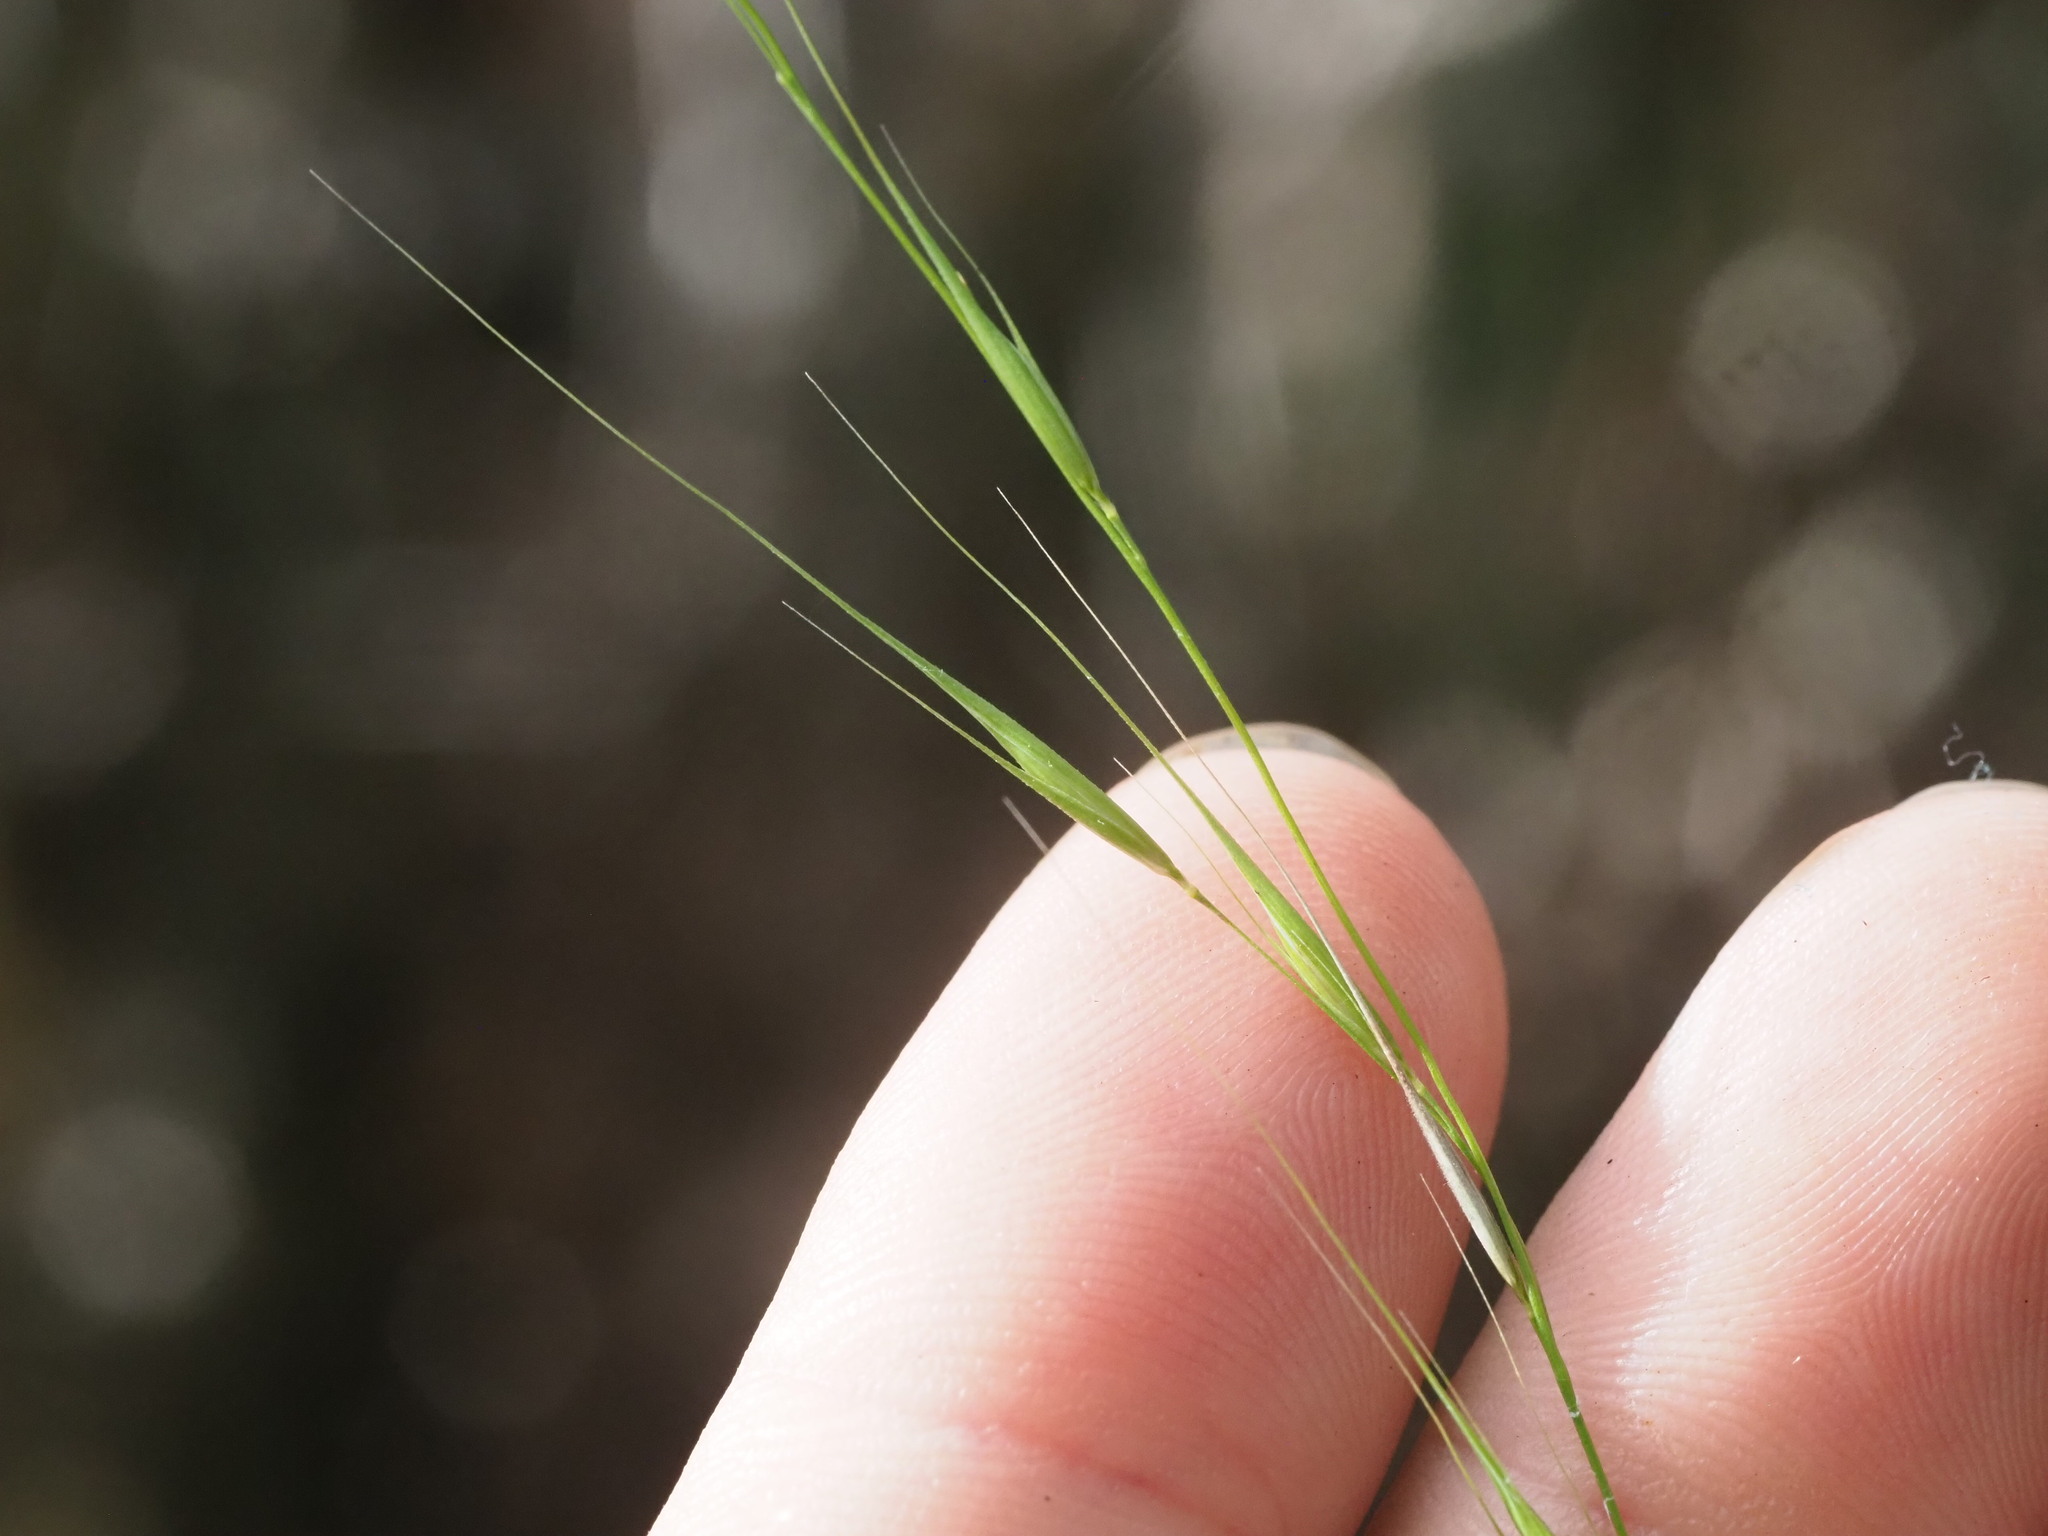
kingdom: Plantae
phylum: Tracheophyta
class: Liliopsida
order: Poales
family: Poaceae
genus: Microlaena
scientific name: Microlaena stipoides
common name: Meadow ricegrass
